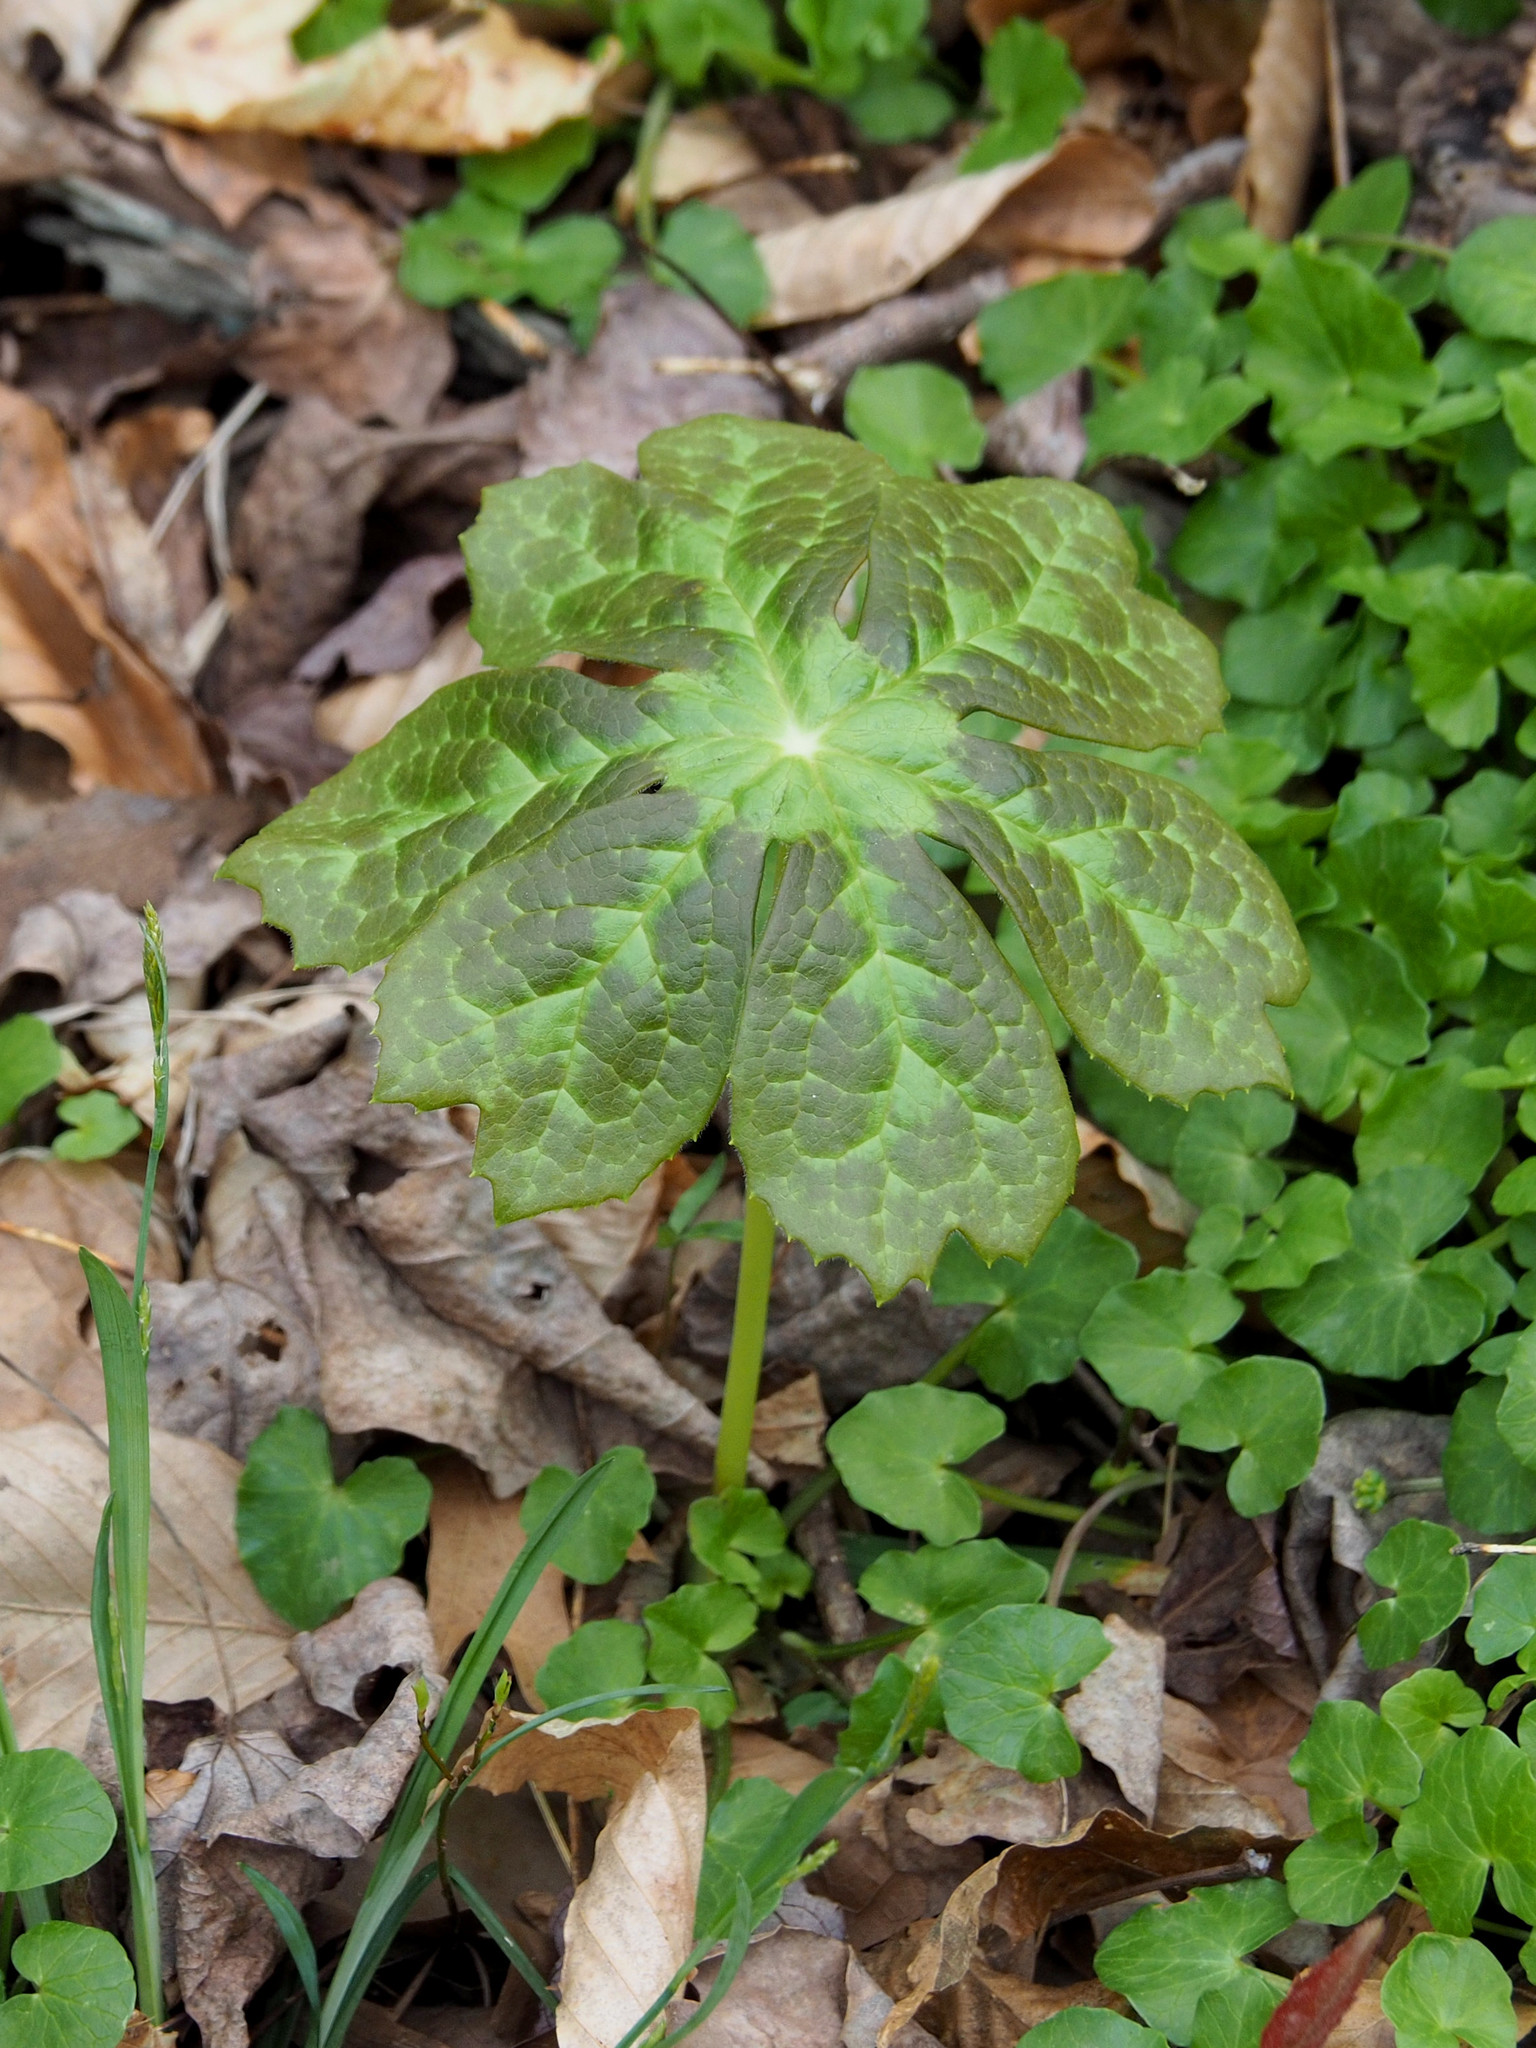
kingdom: Plantae
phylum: Tracheophyta
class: Magnoliopsida
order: Ranunculales
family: Berberidaceae
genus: Podophyllum
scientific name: Podophyllum peltatum
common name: Wild mandrake
